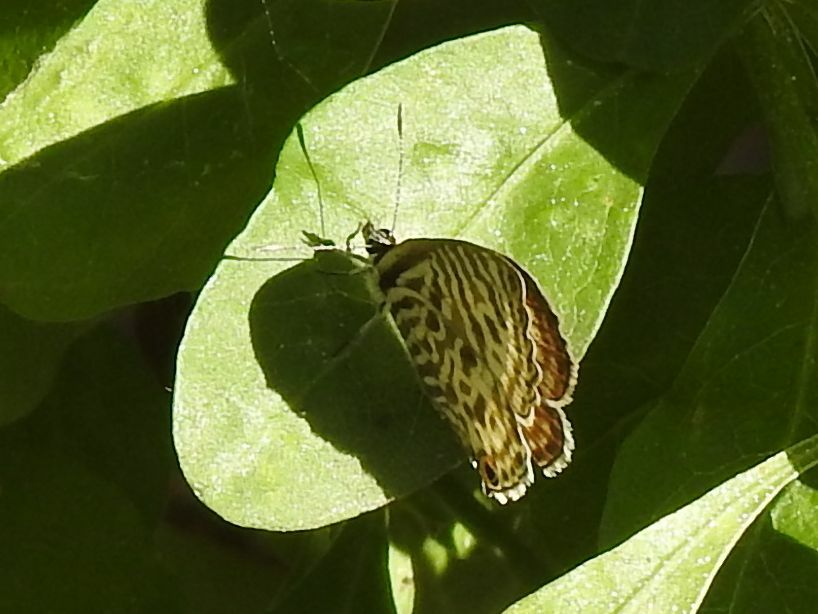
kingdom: Animalia
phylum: Arthropoda
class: Insecta
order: Lepidoptera
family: Lycaenidae
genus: Leptotes
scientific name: Leptotes
